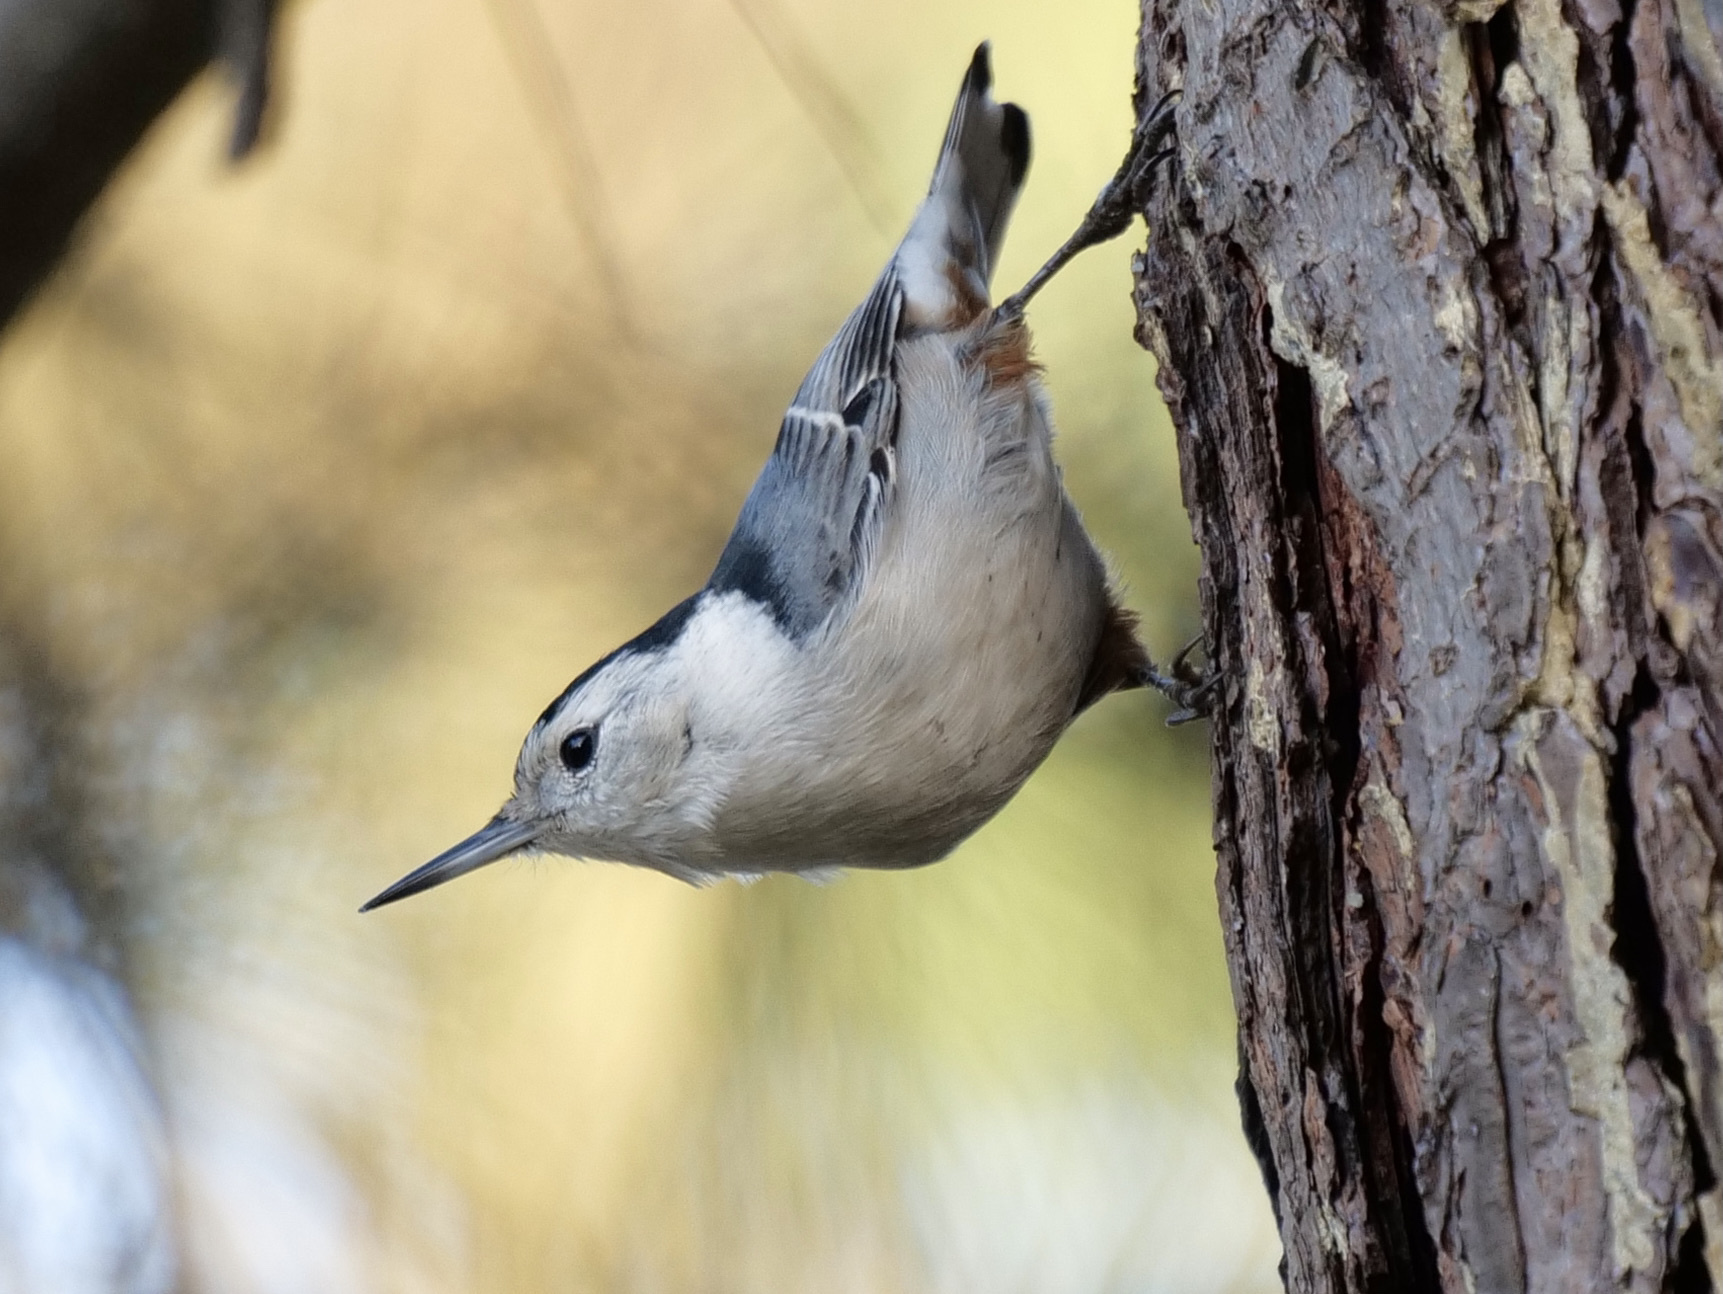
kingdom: Animalia
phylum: Chordata
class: Aves
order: Passeriformes
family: Sittidae
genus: Sitta
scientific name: Sitta carolinensis
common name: White-breasted nuthatch
